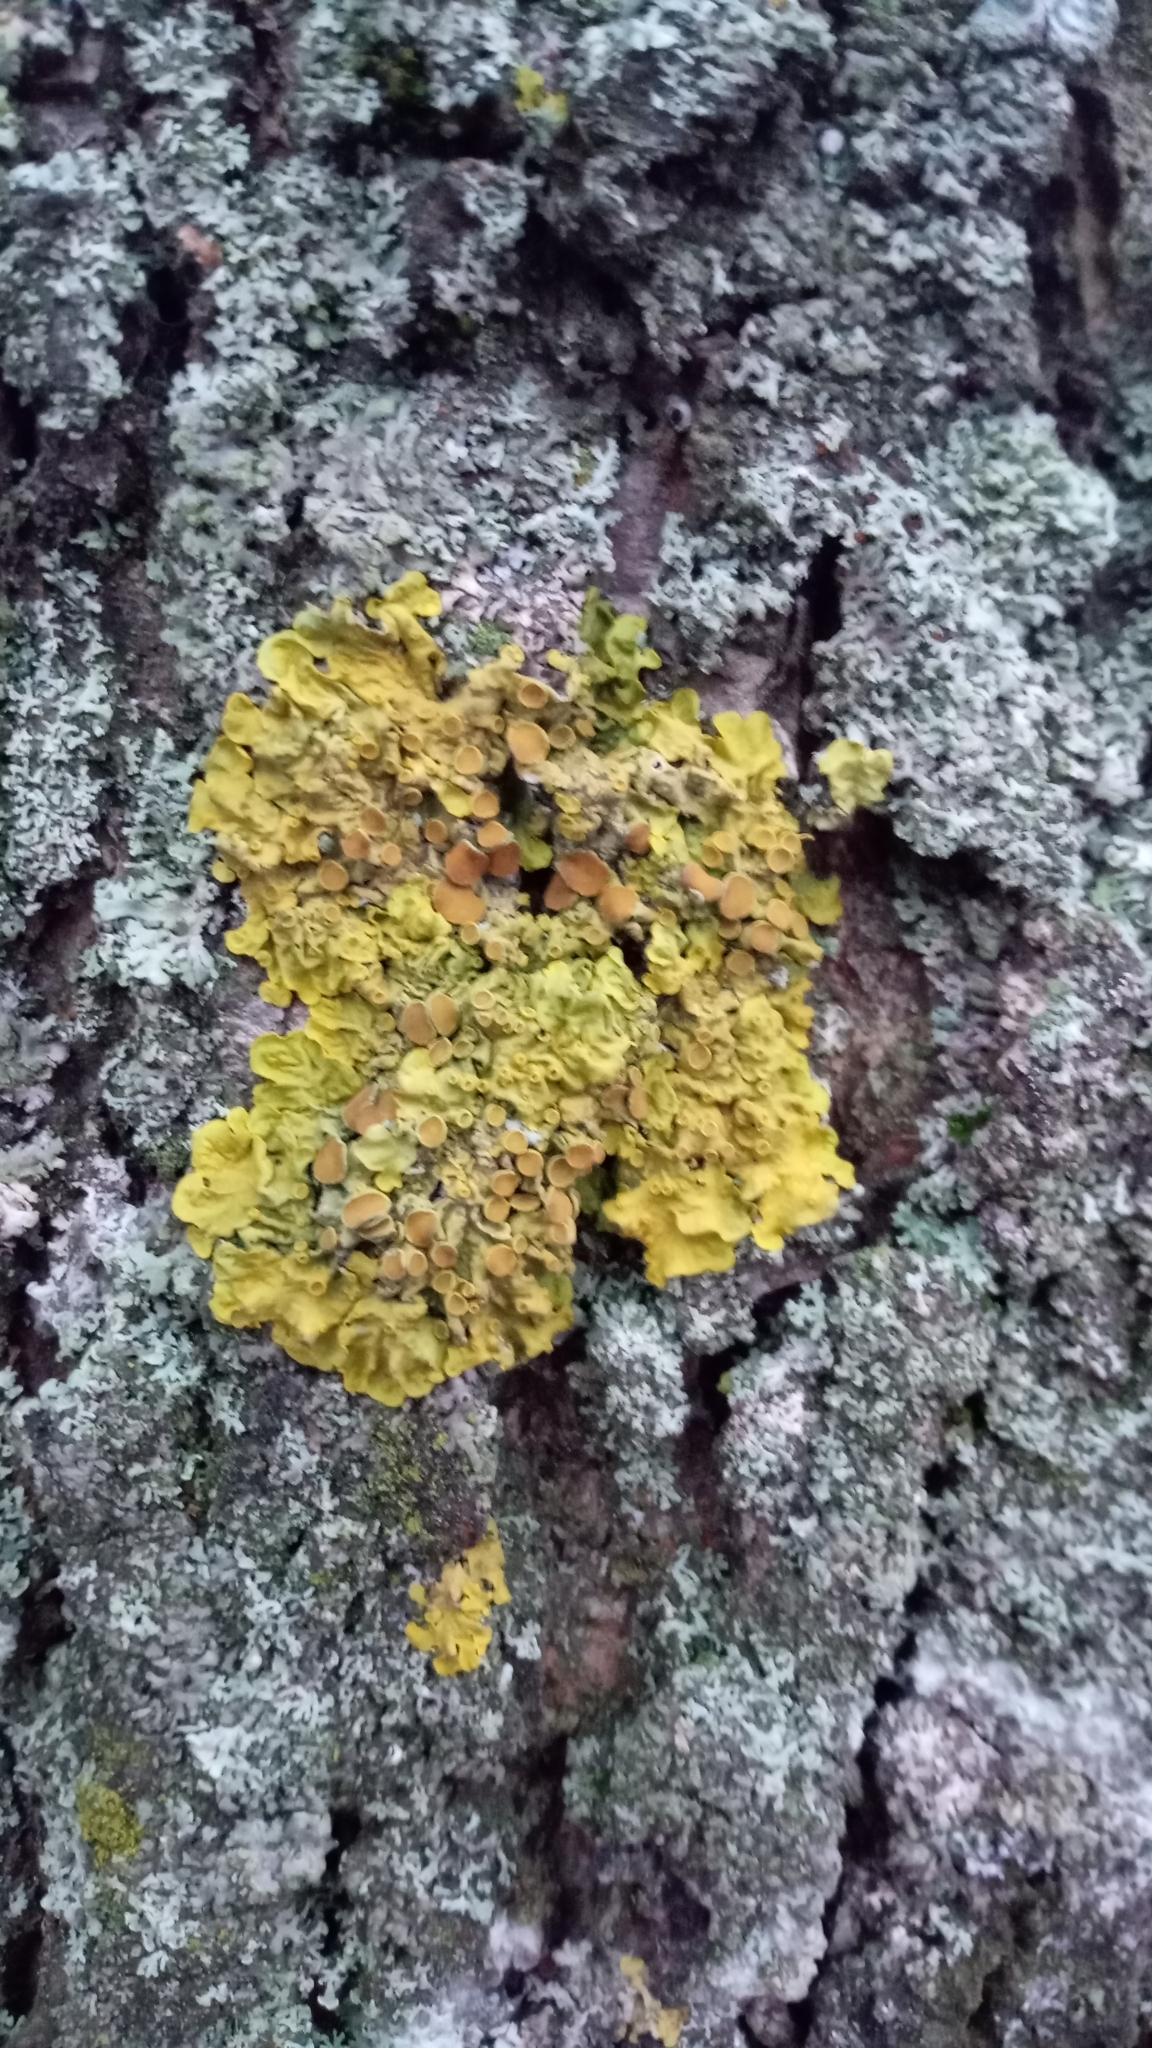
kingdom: Fungi
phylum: Ascomycota
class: Lecanoromycetes
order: Teloschistales
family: Teloschistaceae
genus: Xanthoria
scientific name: Xanthoria parietina
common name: Common orange lichen
